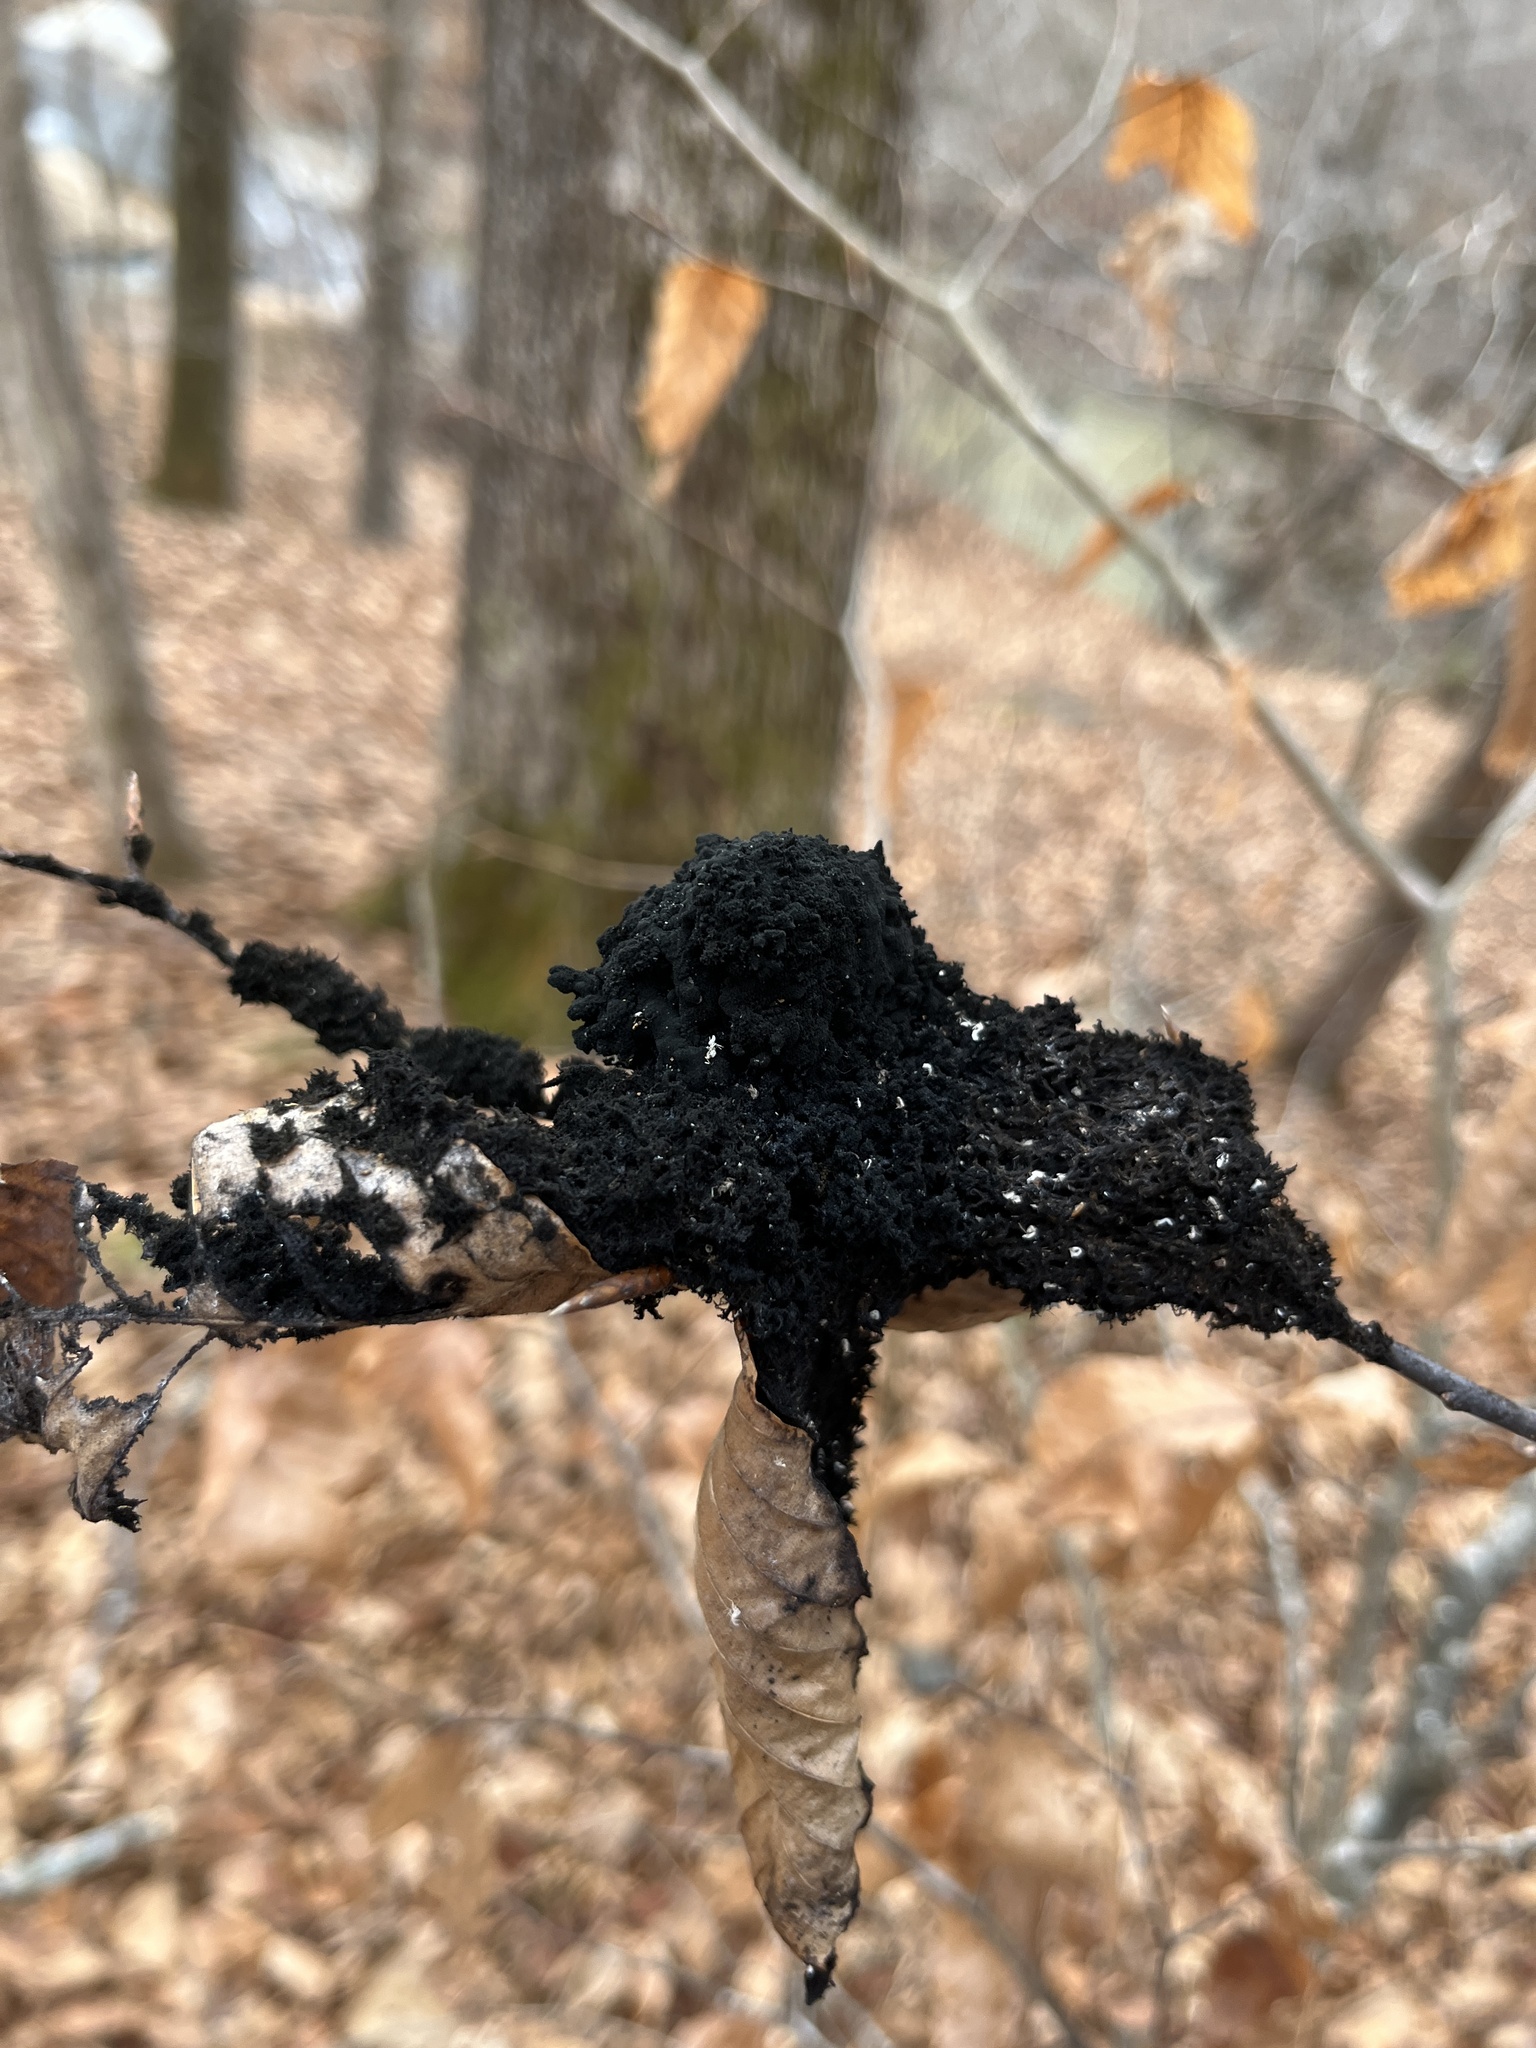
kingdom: Fungi
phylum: Ascomycota
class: Dothideomycetes
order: Capnodiales
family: Capnodiaceae
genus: Scorias
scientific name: Scorias spongiosa
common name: Black sooty mold
